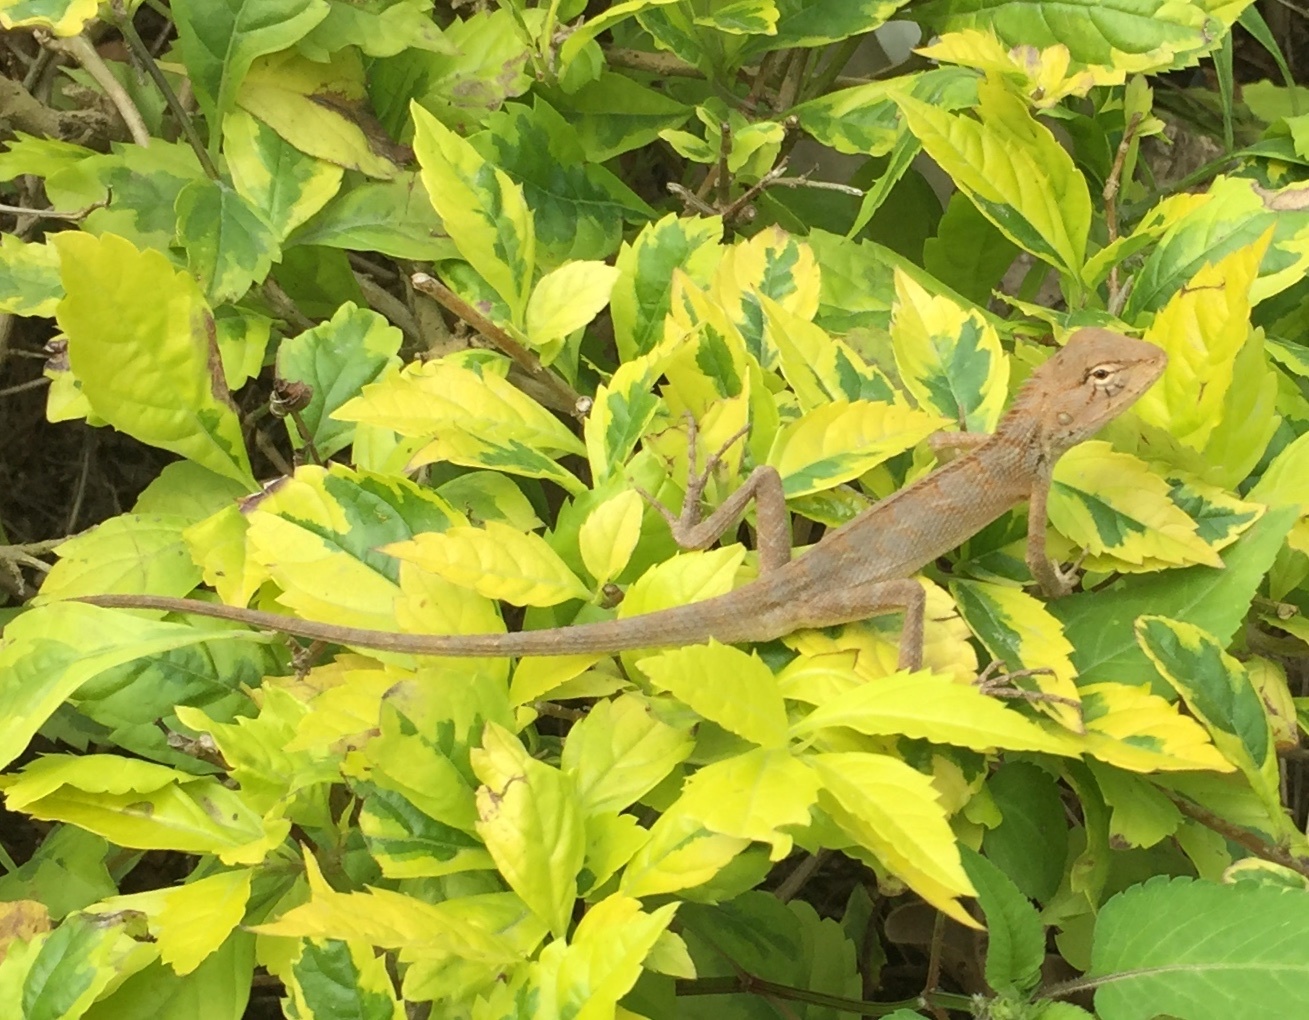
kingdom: Animalia
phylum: Chordata
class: Squamata
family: Agamidae
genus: Calotes
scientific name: Calotes versicolor
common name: Oriental garden lizard
